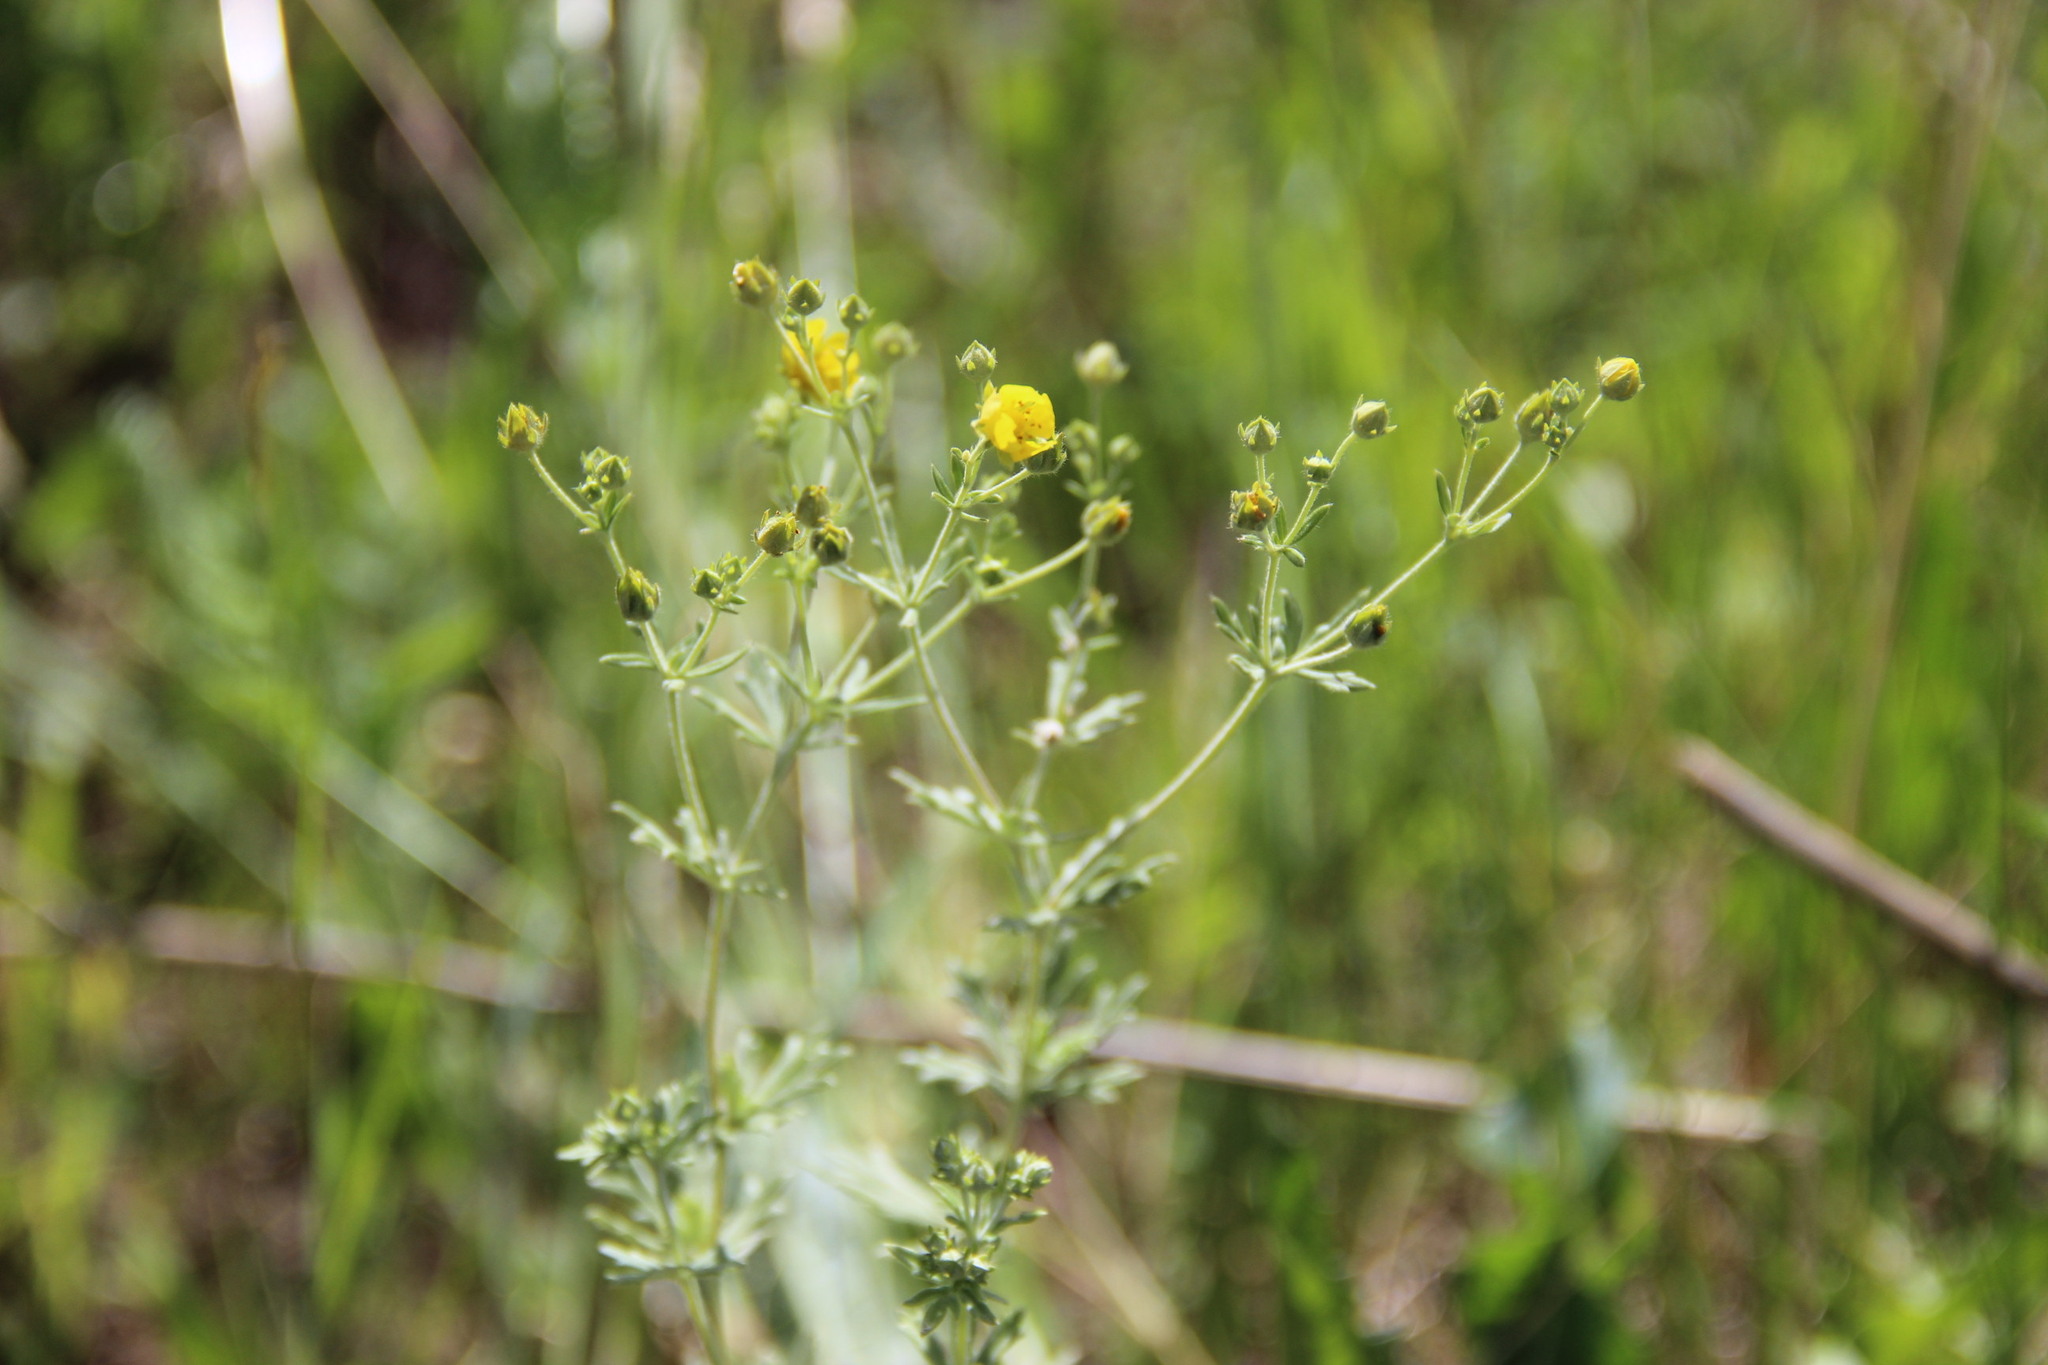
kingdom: Plantae
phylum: Tracheophyta
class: Magnoliopsida
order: Rosales
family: Rosaceae
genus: Potentilla
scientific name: Potentilla argentea
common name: Hoary cinquefoil
